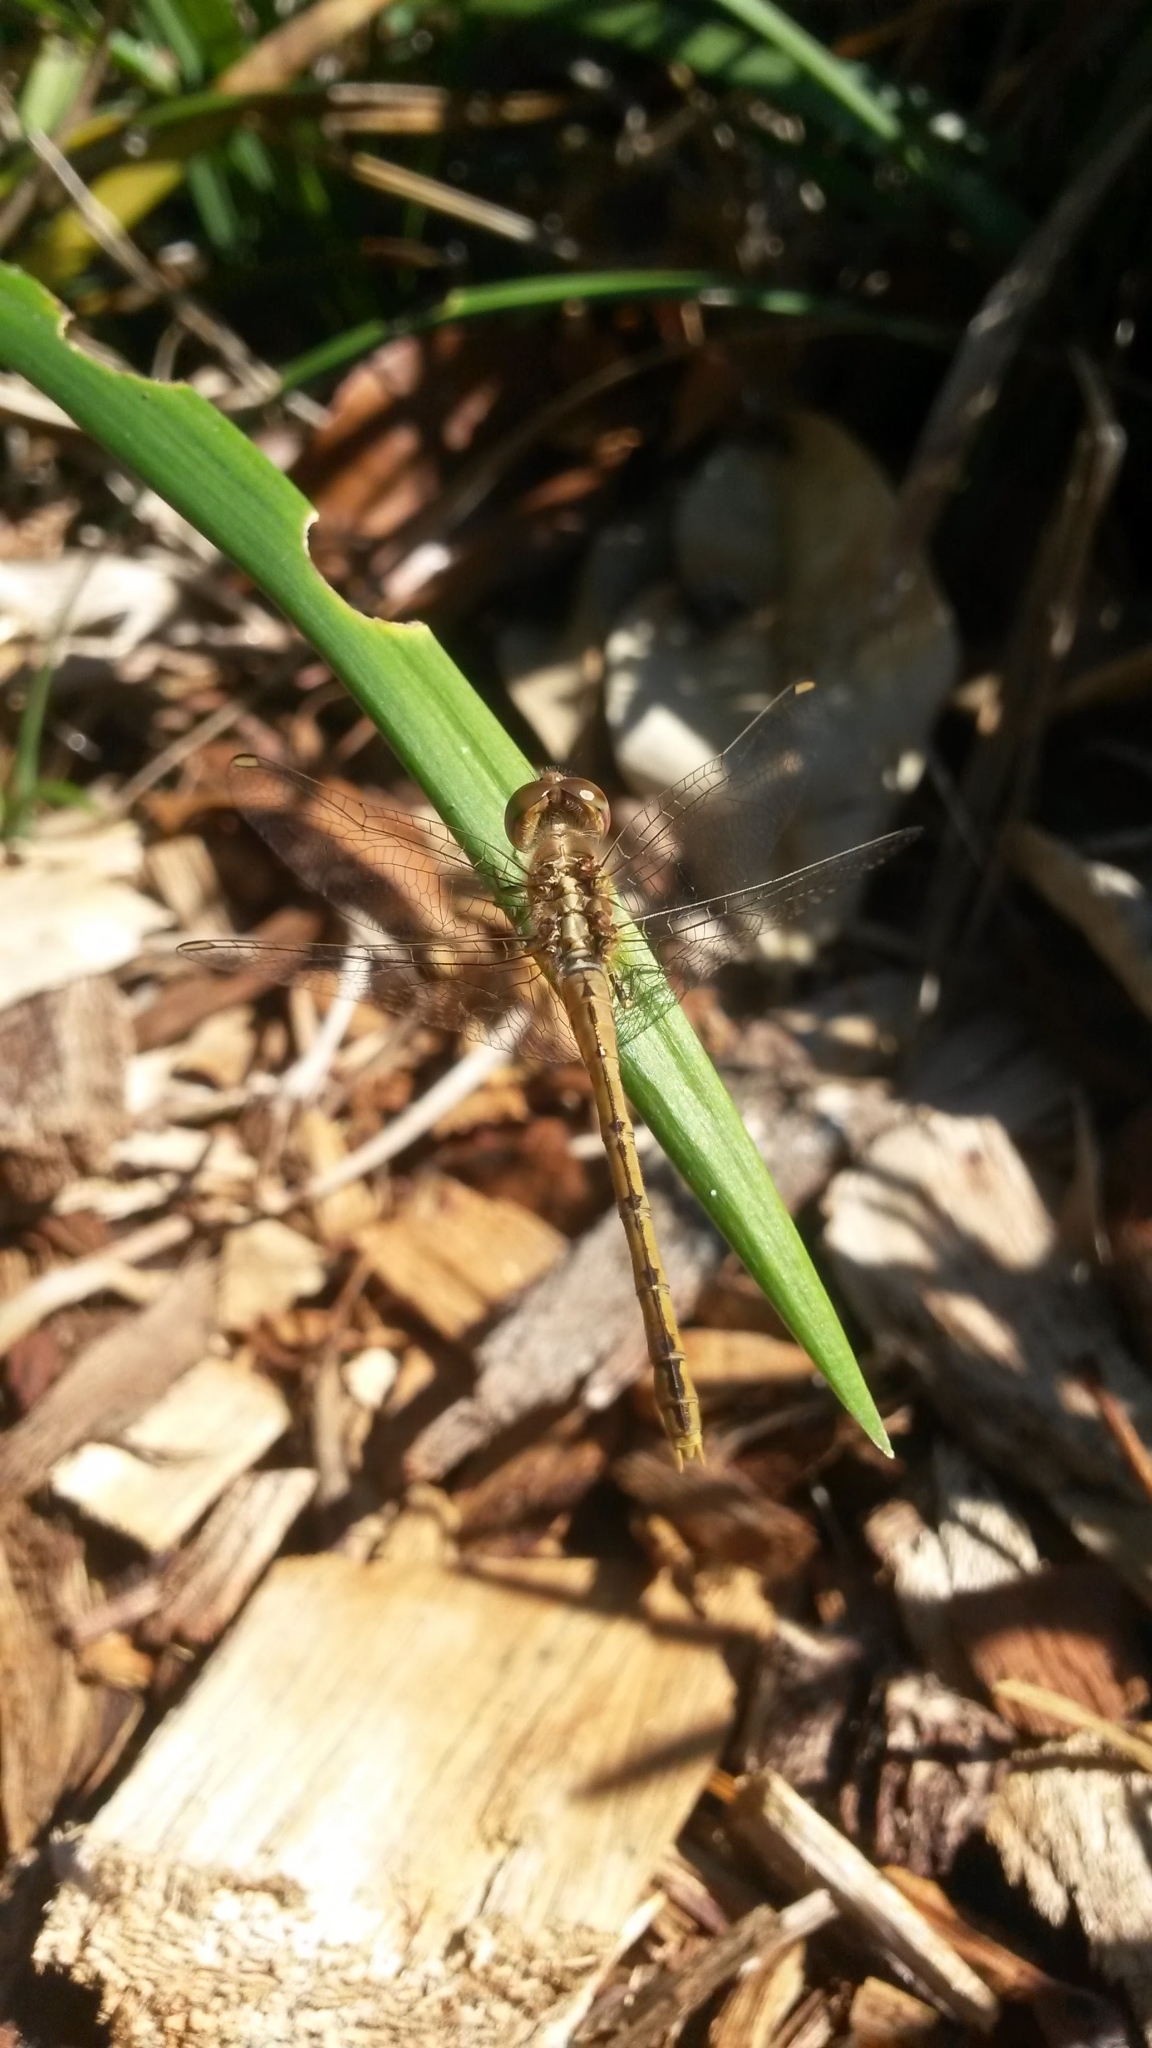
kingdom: Animalia
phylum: Arthropoda
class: Insecta
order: Odonata
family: Libellulidae
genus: Diplacodes
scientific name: Diplacodes bipunctata
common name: Red percher dragonfly
